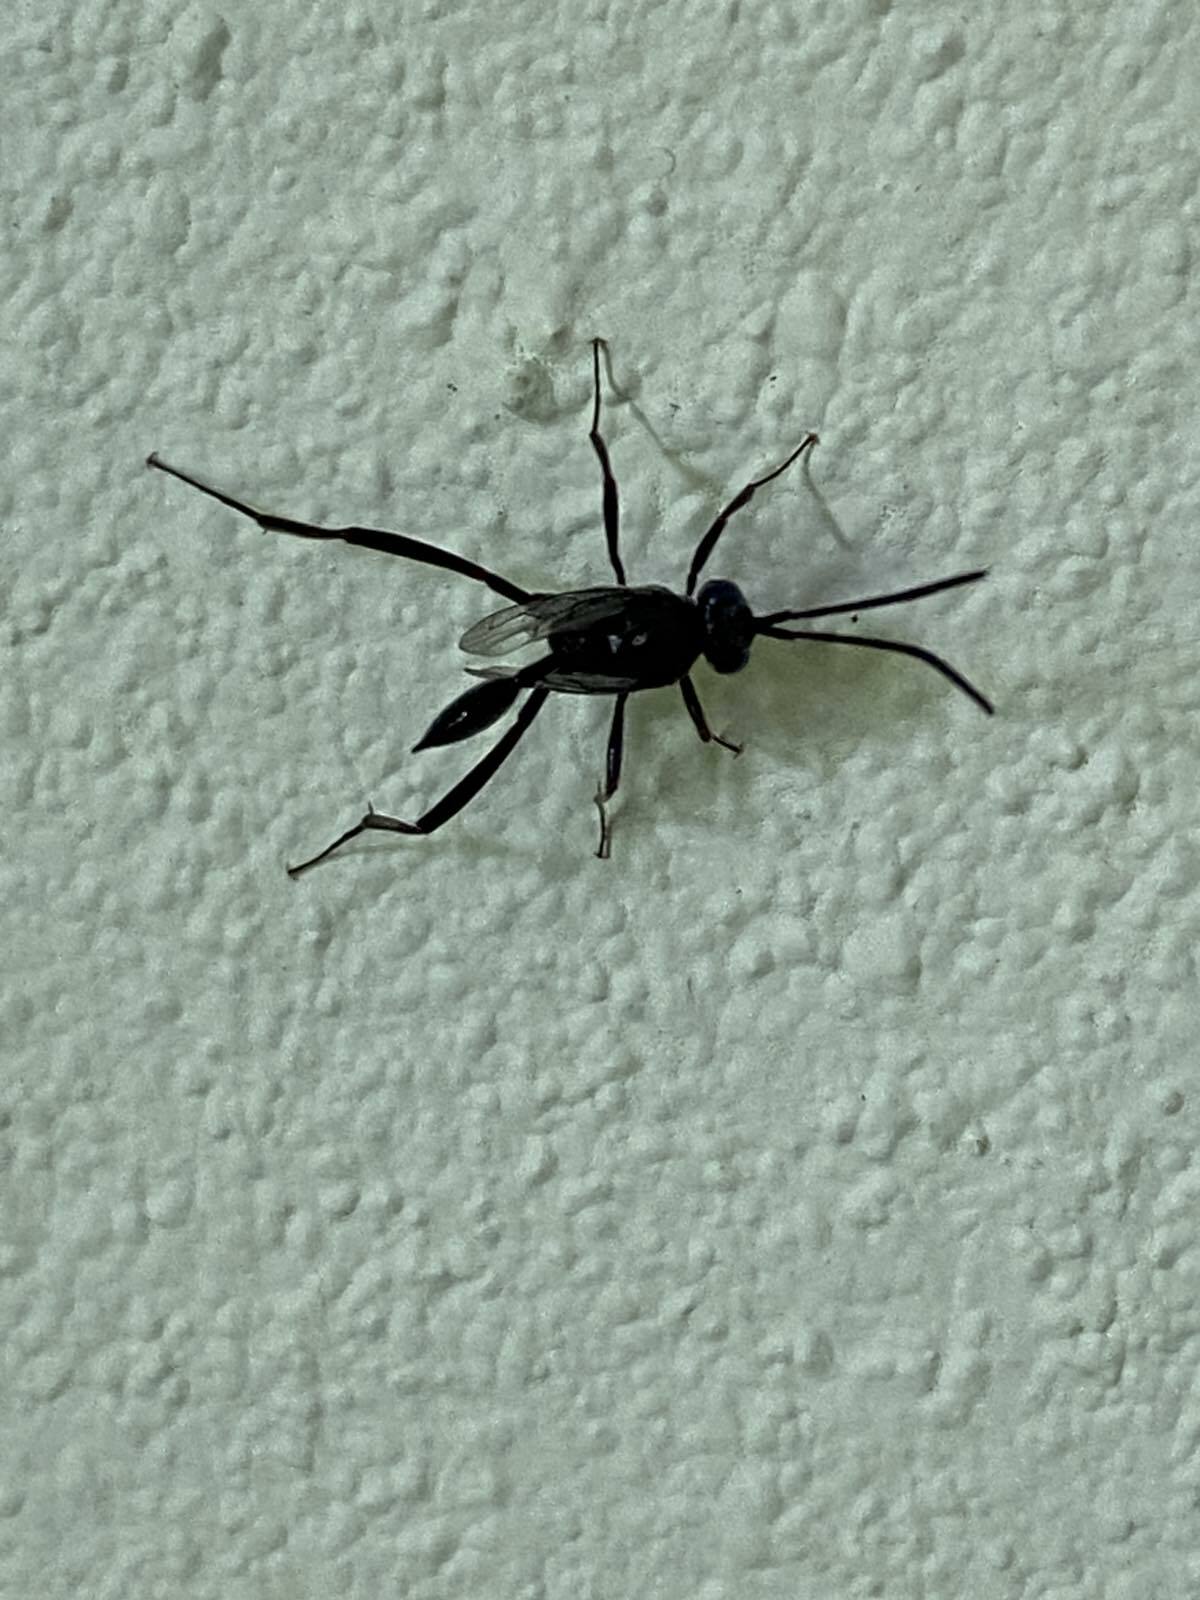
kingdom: Animalia
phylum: Arthropoda
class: Insecta
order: Hymenoptera
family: Evaniidae
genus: Evania
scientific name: Evania appendigaster
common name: Ensign wasp
